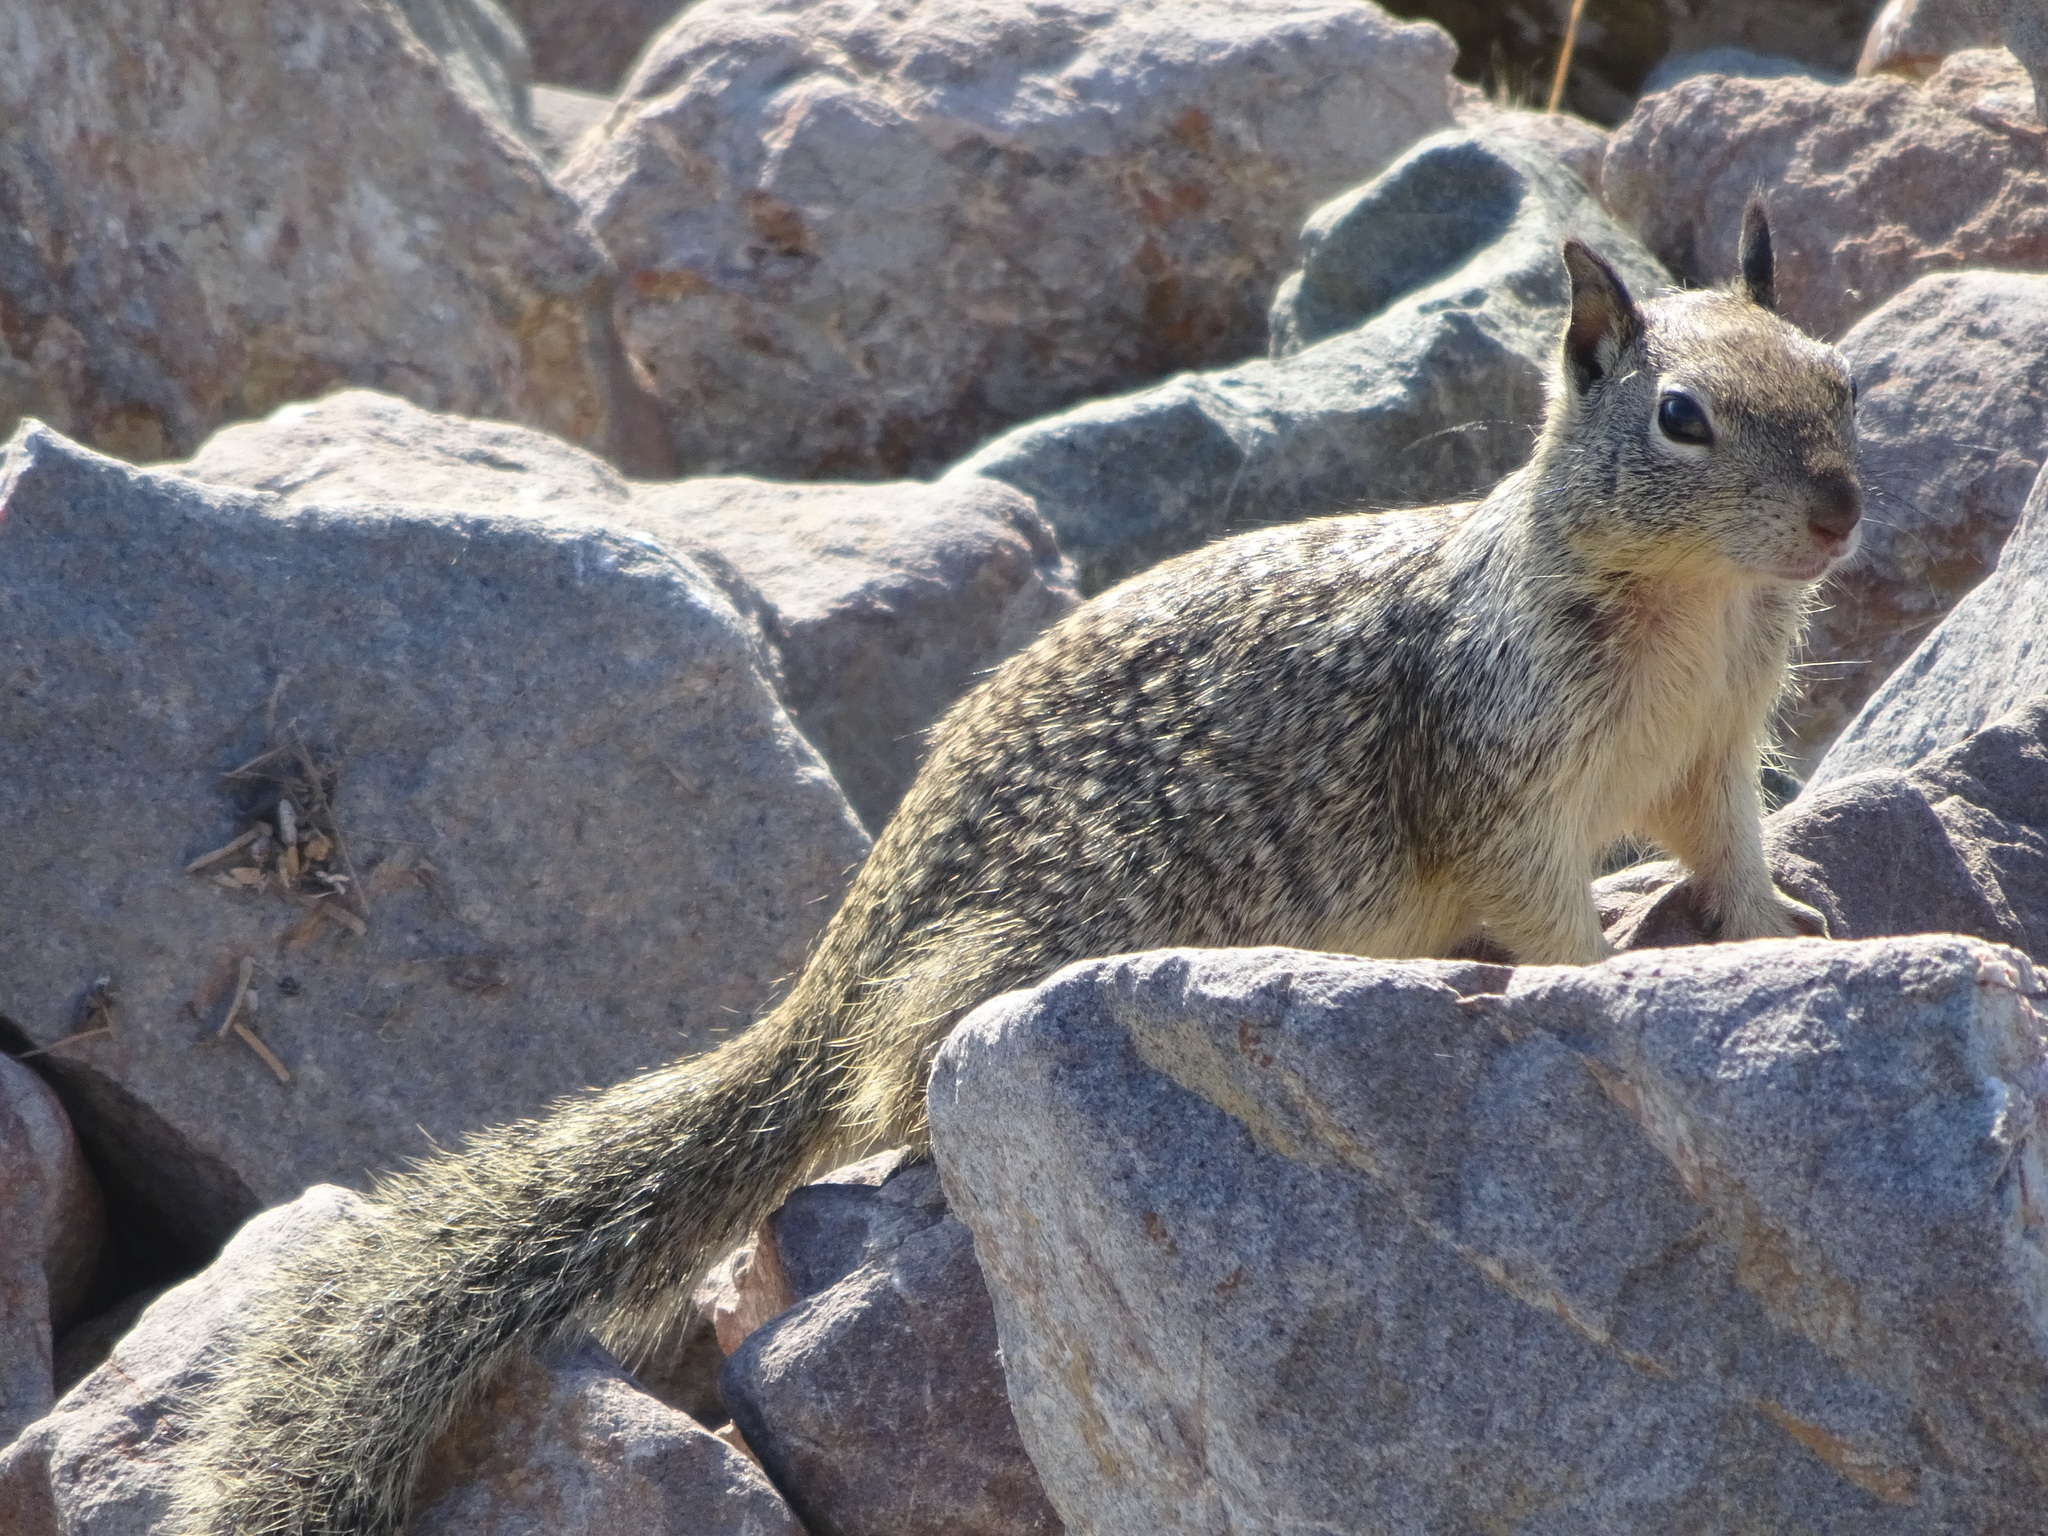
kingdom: Animalia
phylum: Chordata
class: Mammalia
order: Rodentia
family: Sciuridae
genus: Otospermophilus
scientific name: Otospermophilus beecheyi
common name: California ground squirrel
